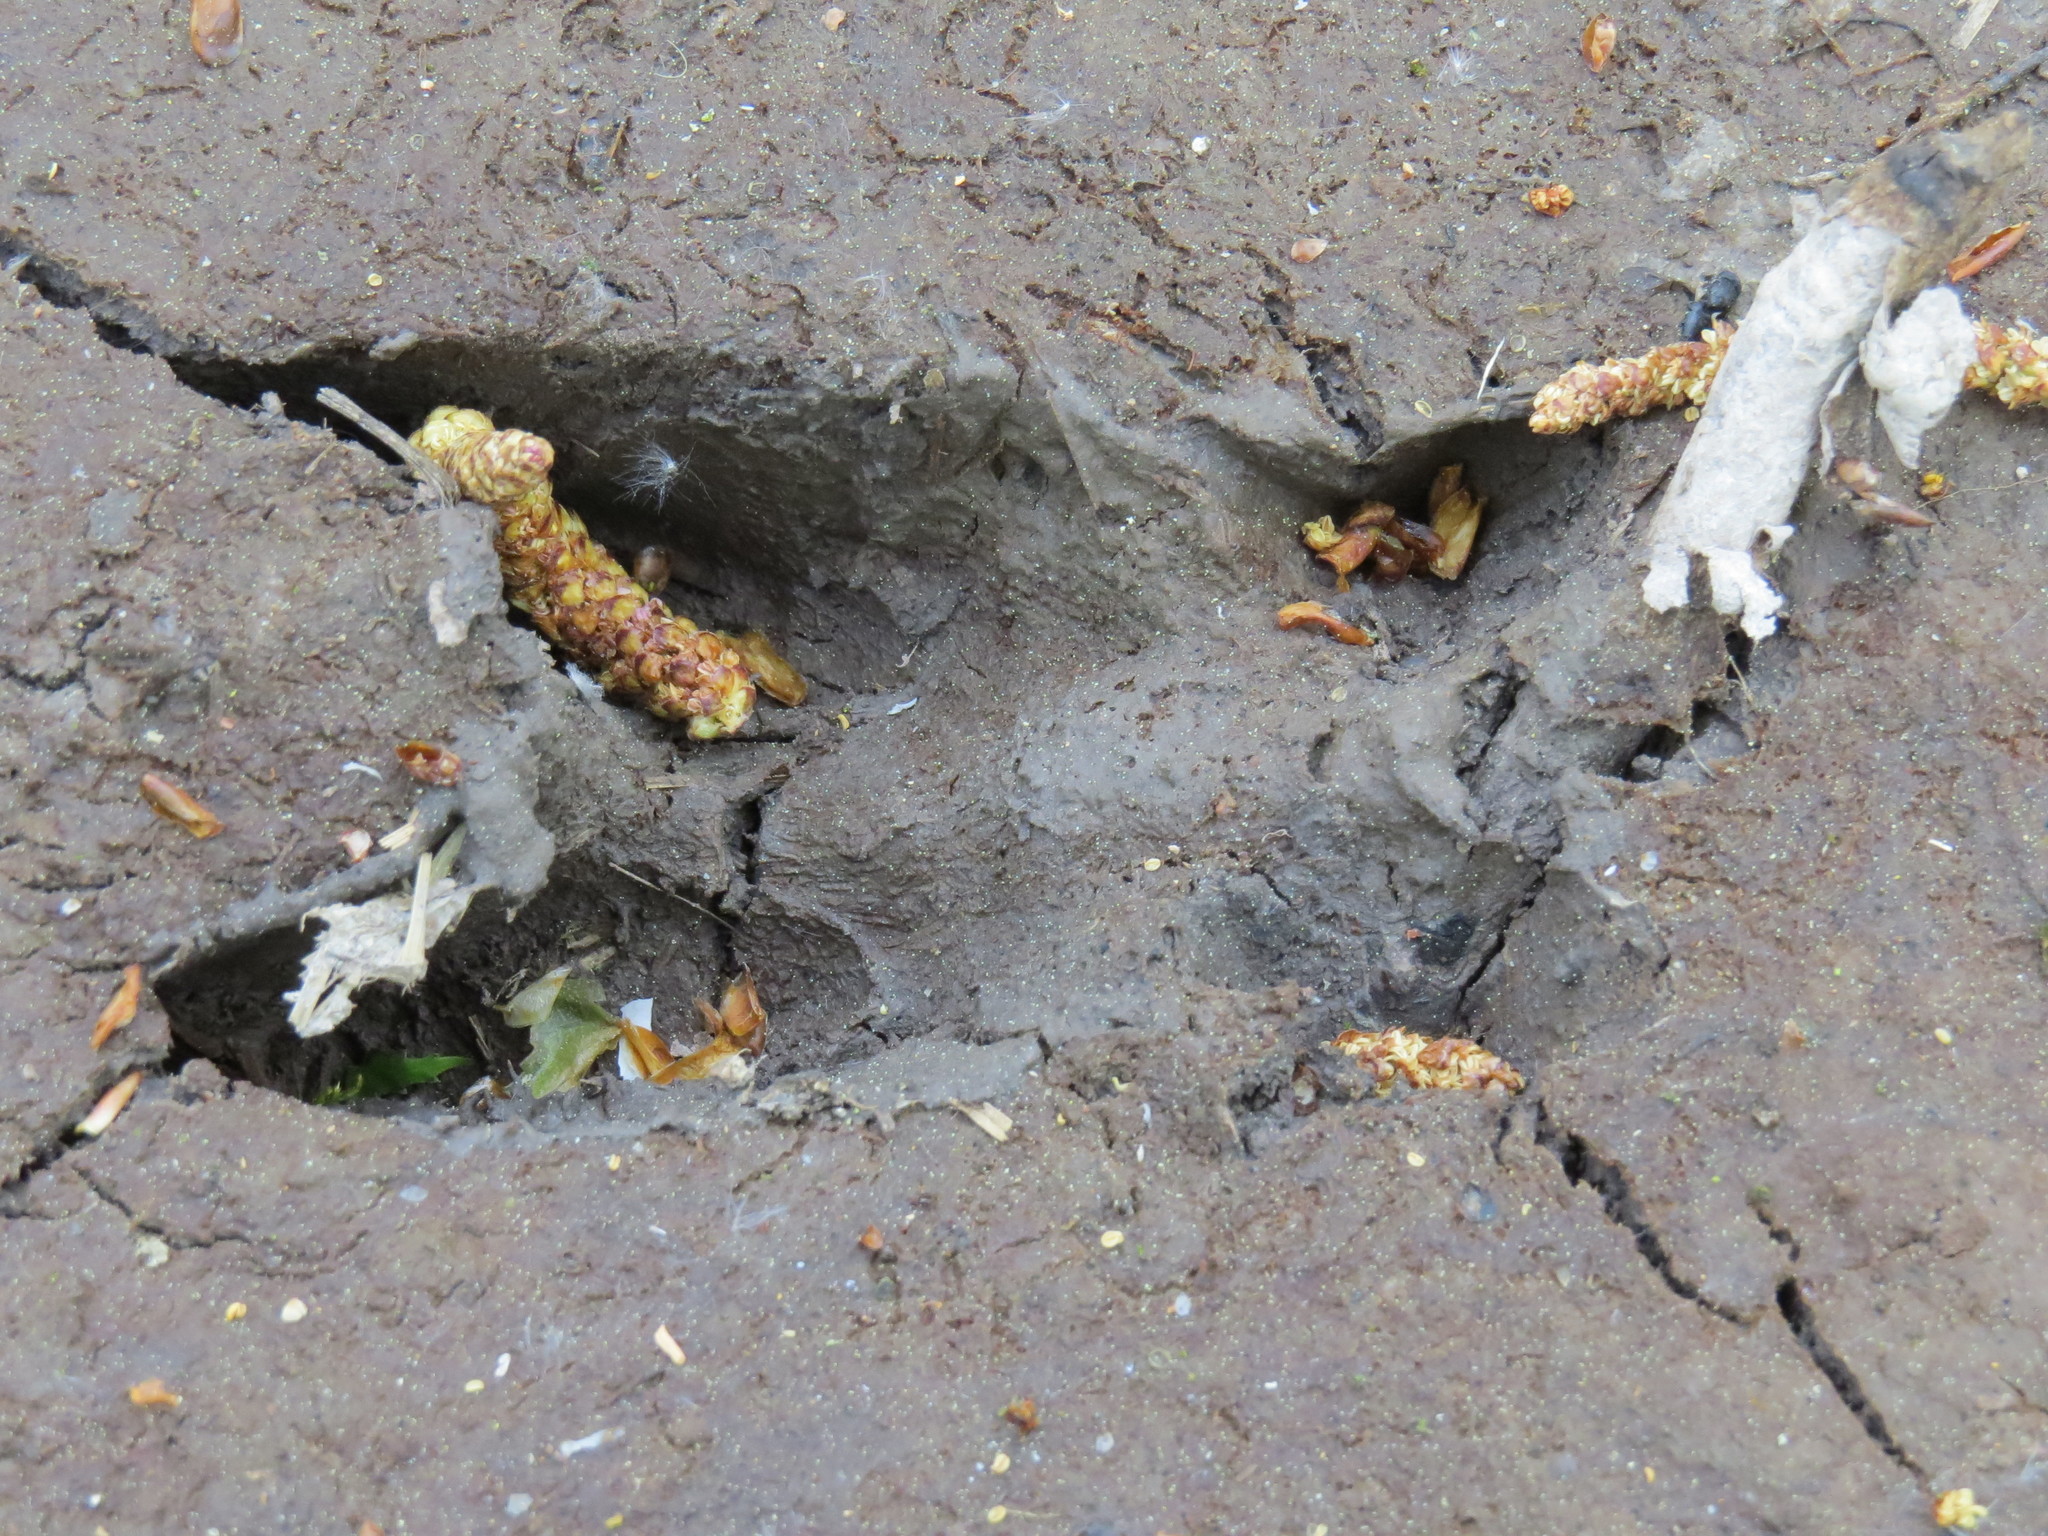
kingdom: Animalia
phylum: Chordata
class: Mammalia
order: Artiodactyla
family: Suidae
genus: Sus
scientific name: Sus scrofa
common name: Wild boar
